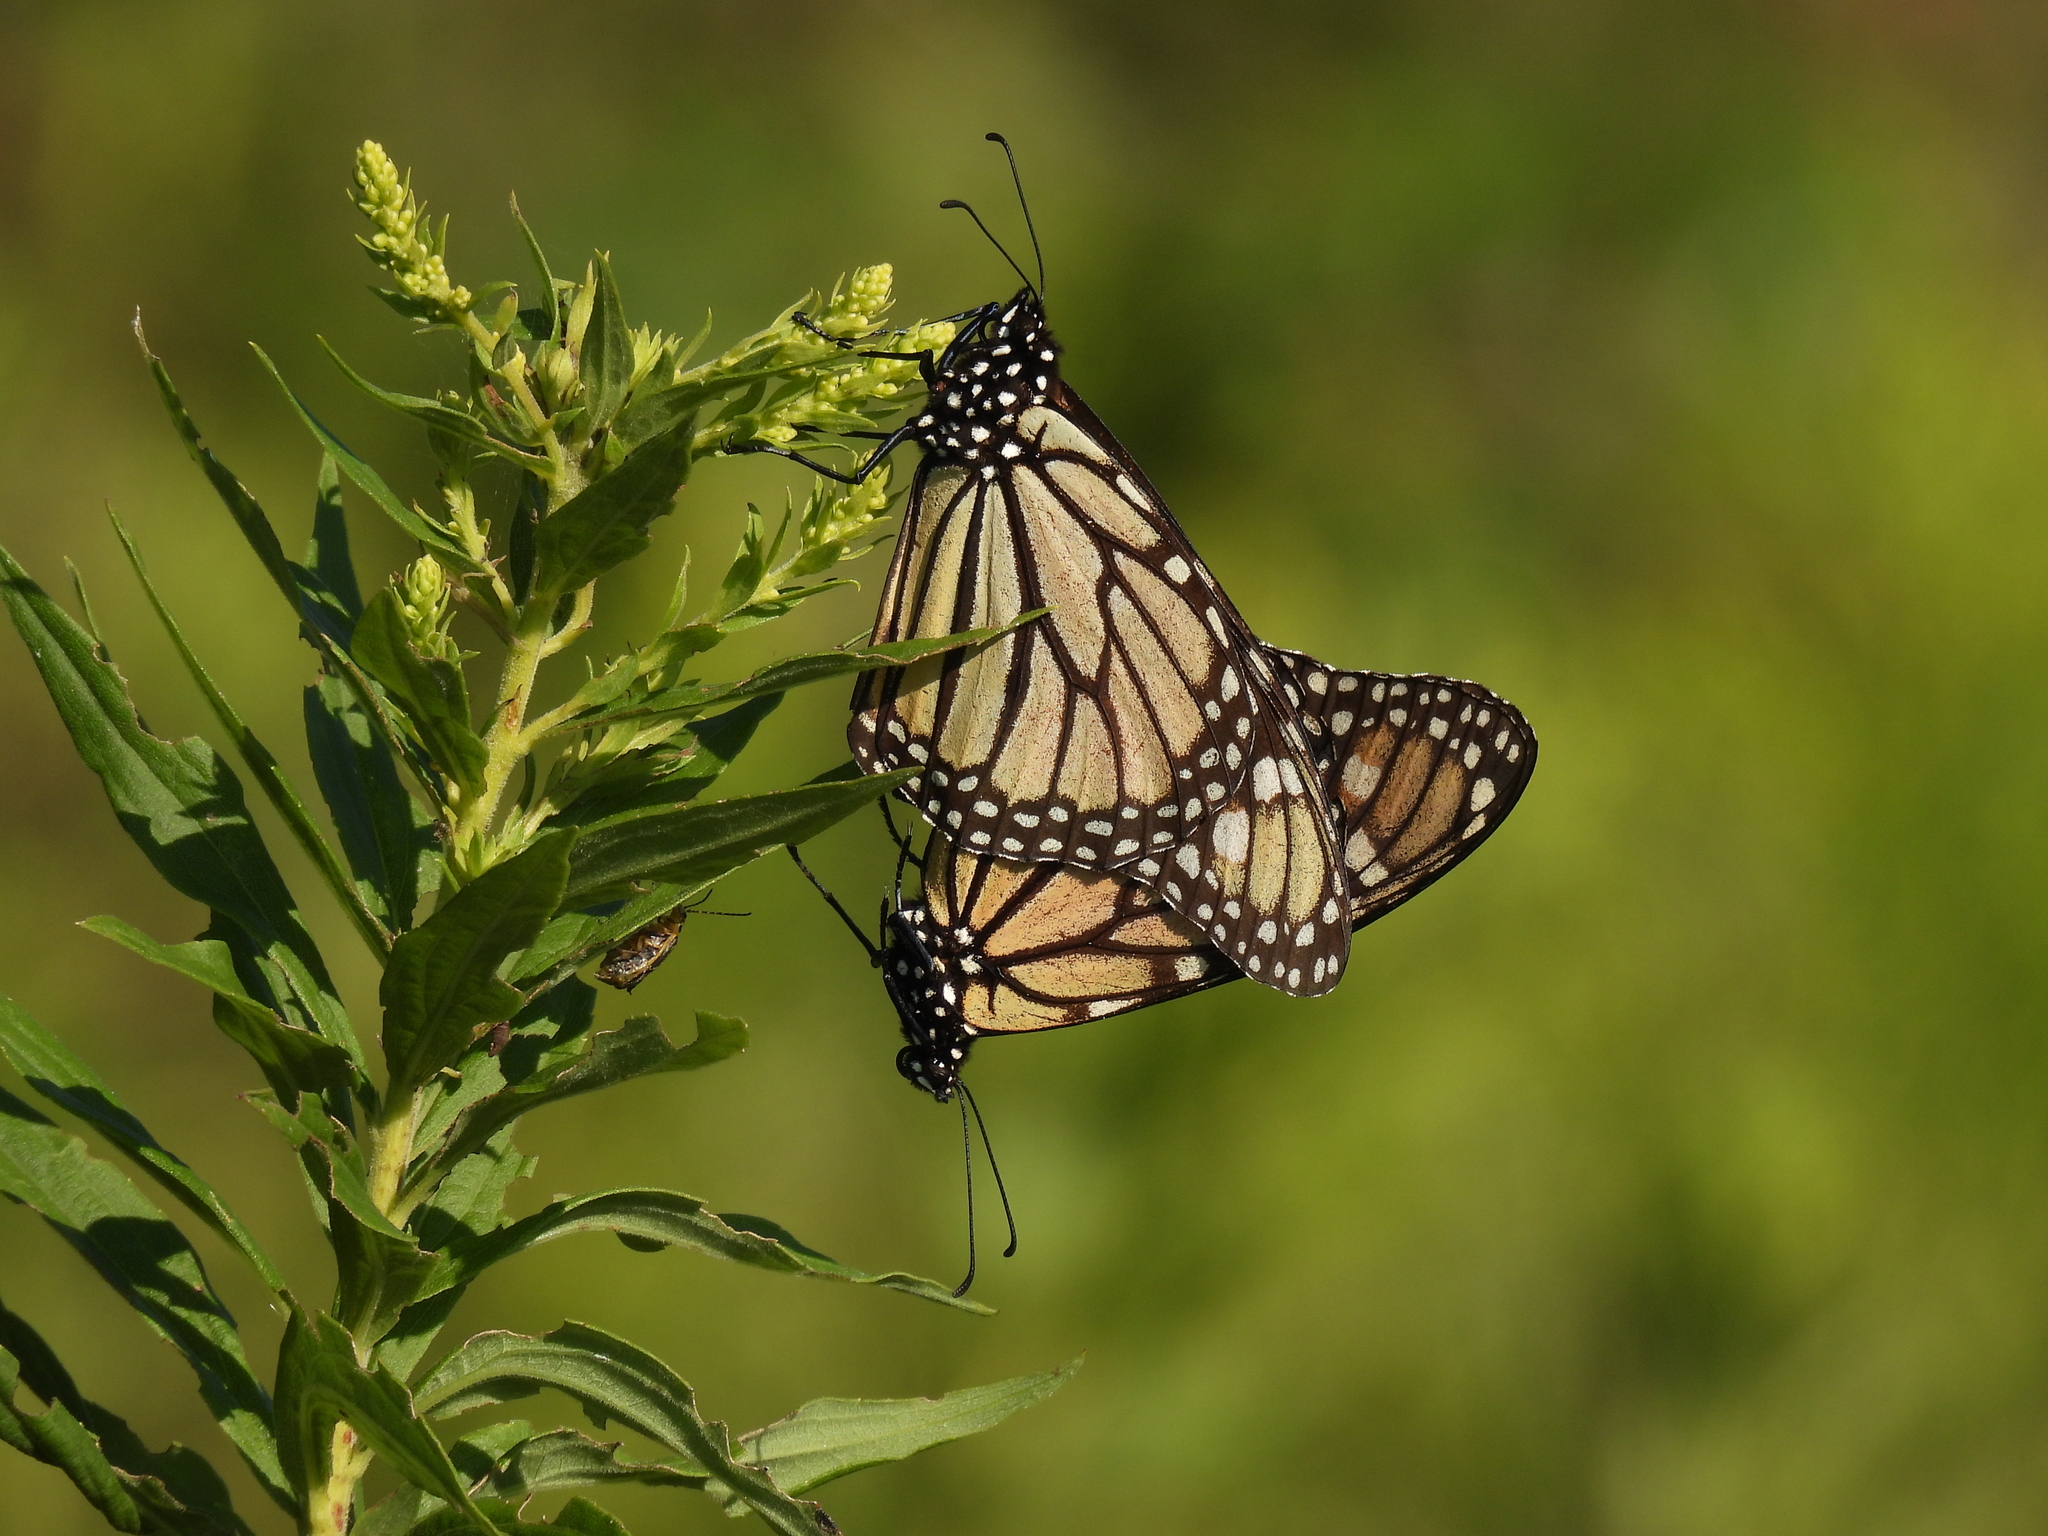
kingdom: Animalia
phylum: Arthropoda
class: Insecta
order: Lepidoptera
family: Nymphalidae
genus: Danaus
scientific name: Danaus plexippus
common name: Monarch
